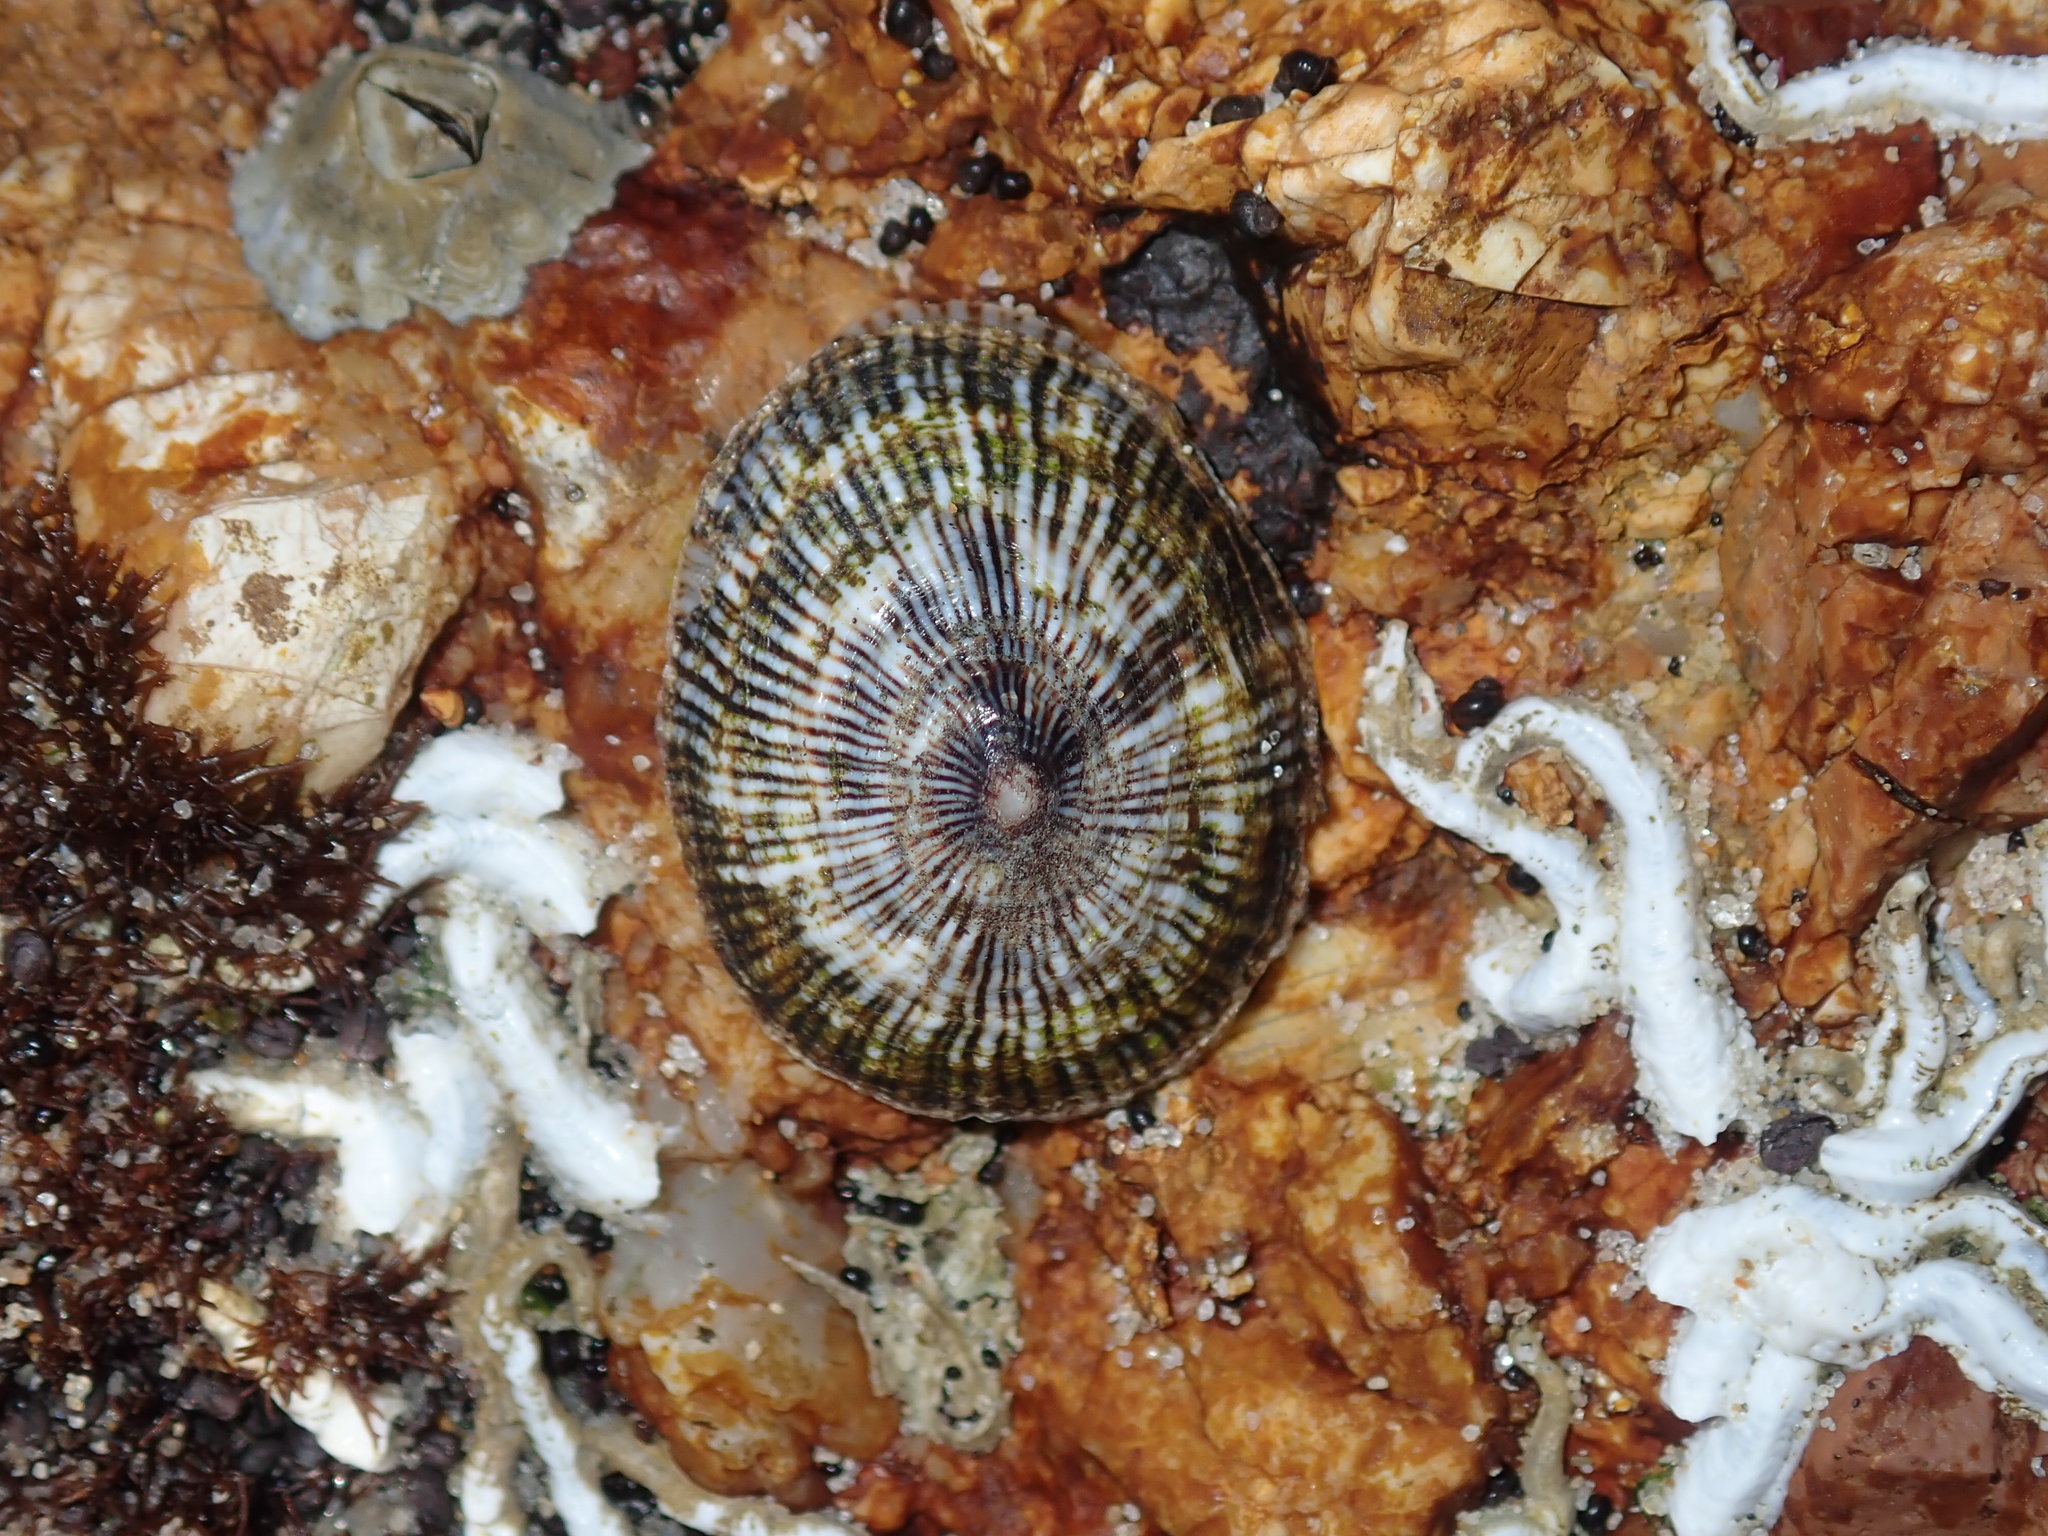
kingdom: Animalia
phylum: Mollusca
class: Gastropoda
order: Siphonariida
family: Siphonariidae
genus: Siphonaria
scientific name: Siphonaria funiculata
